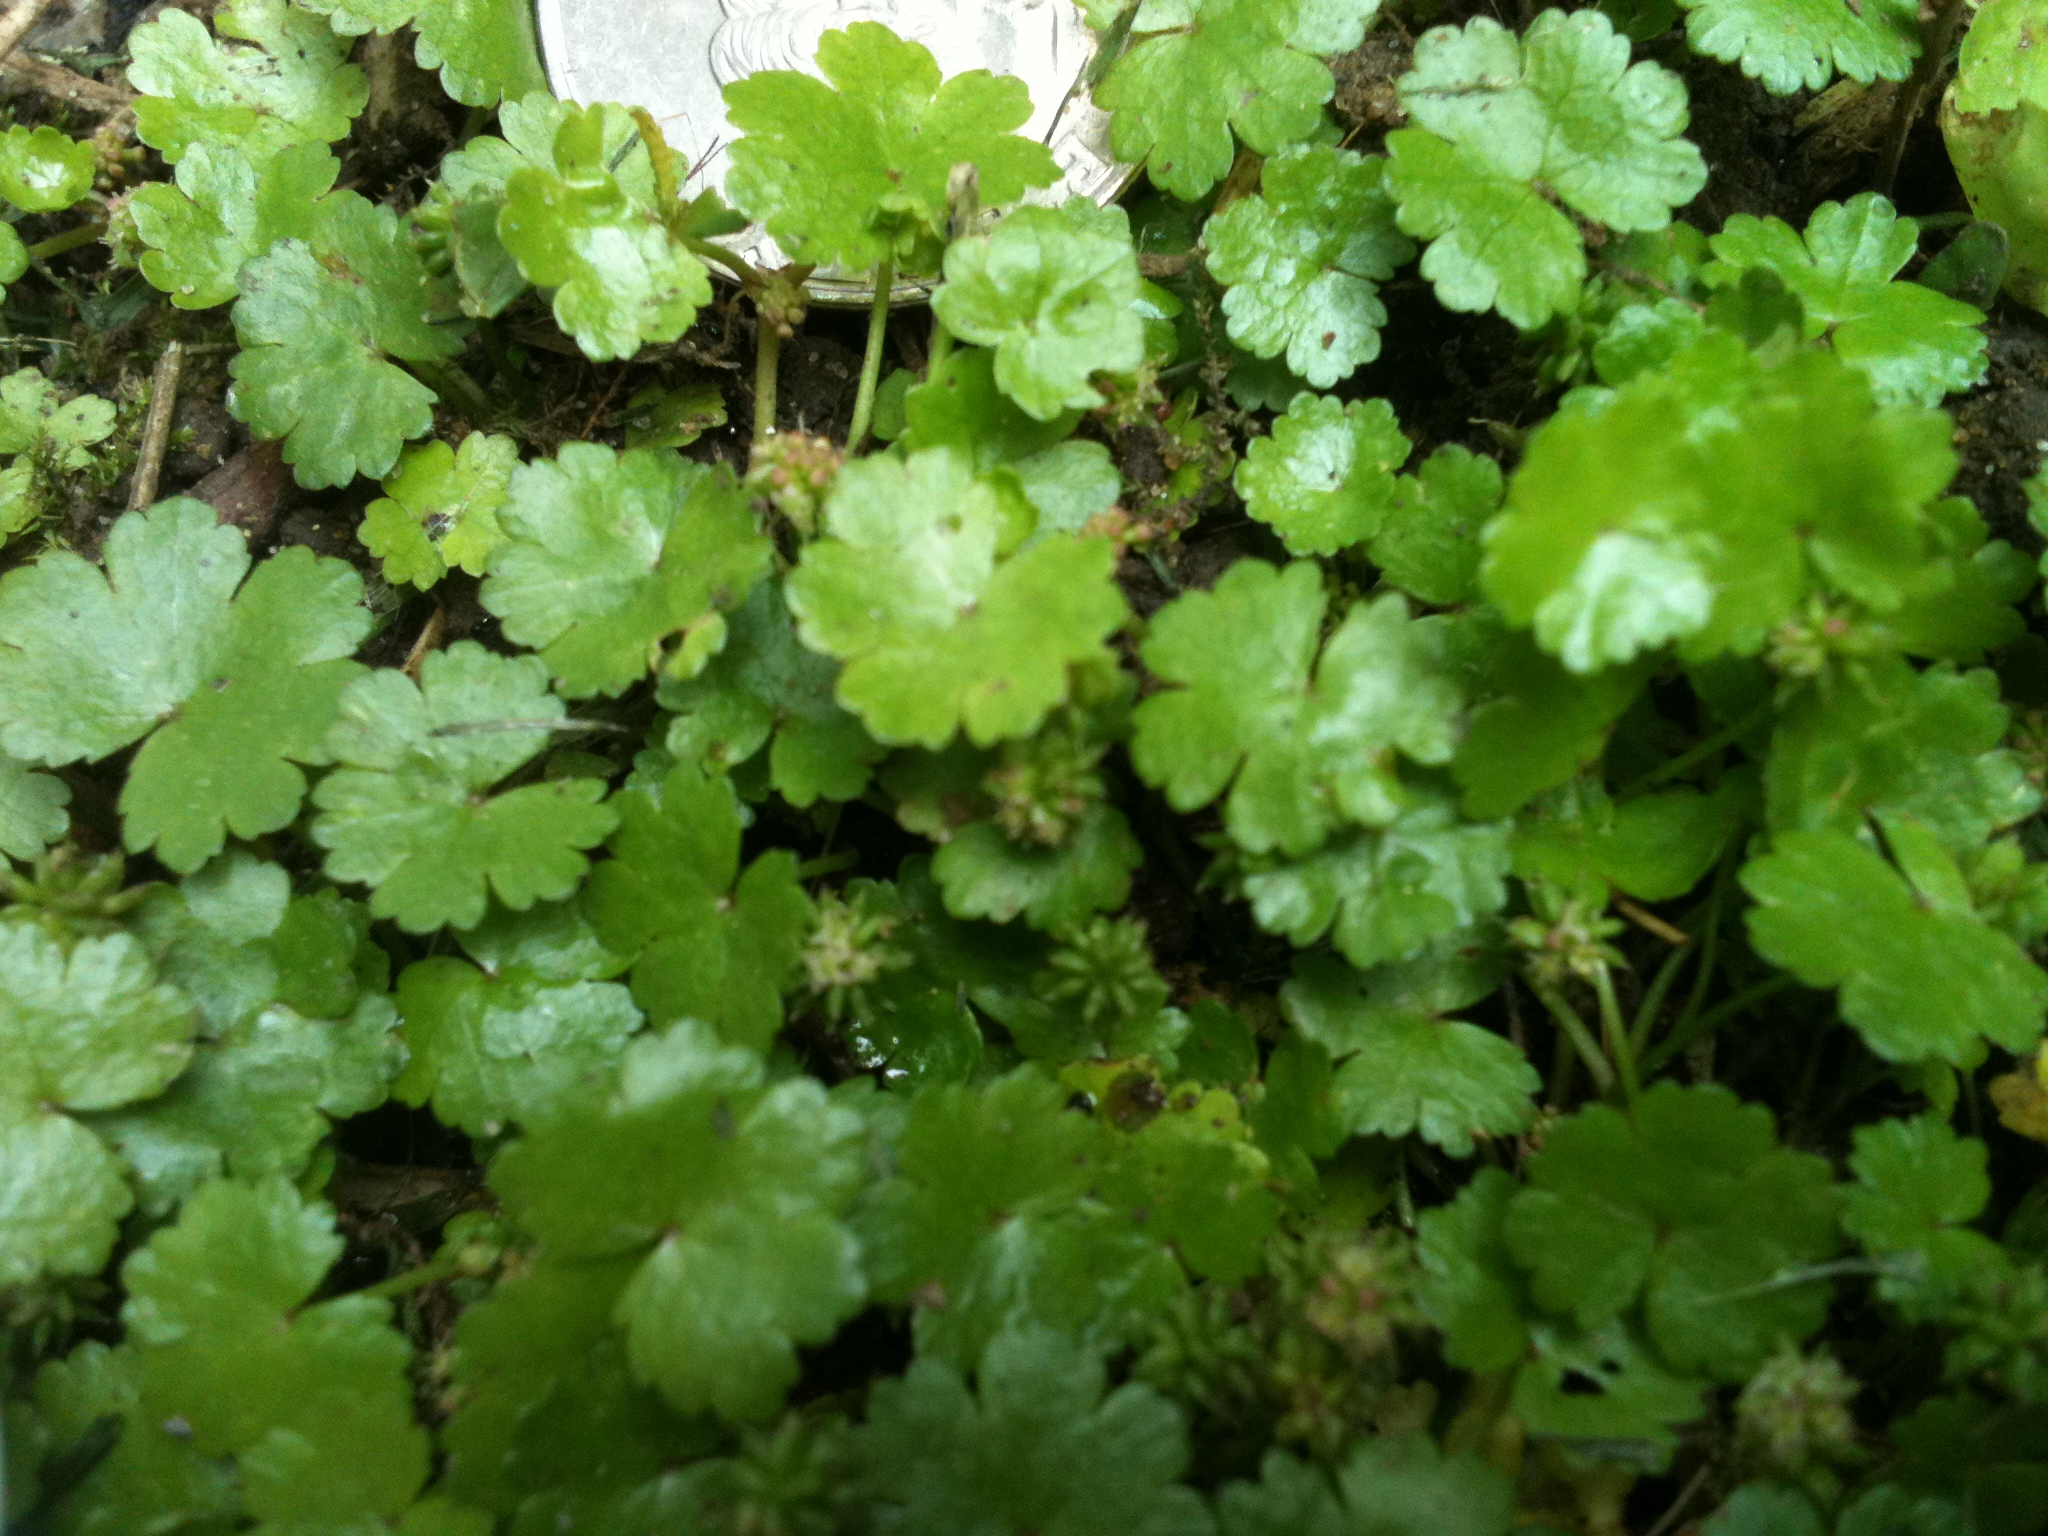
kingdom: Plantae
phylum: Tracheophyta
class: Magnoliopsida
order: Apiales
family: Araliaceae
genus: Hydrocotyle
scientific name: Hydrocotyle sibthorpioides
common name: Lawn marshpennywort
